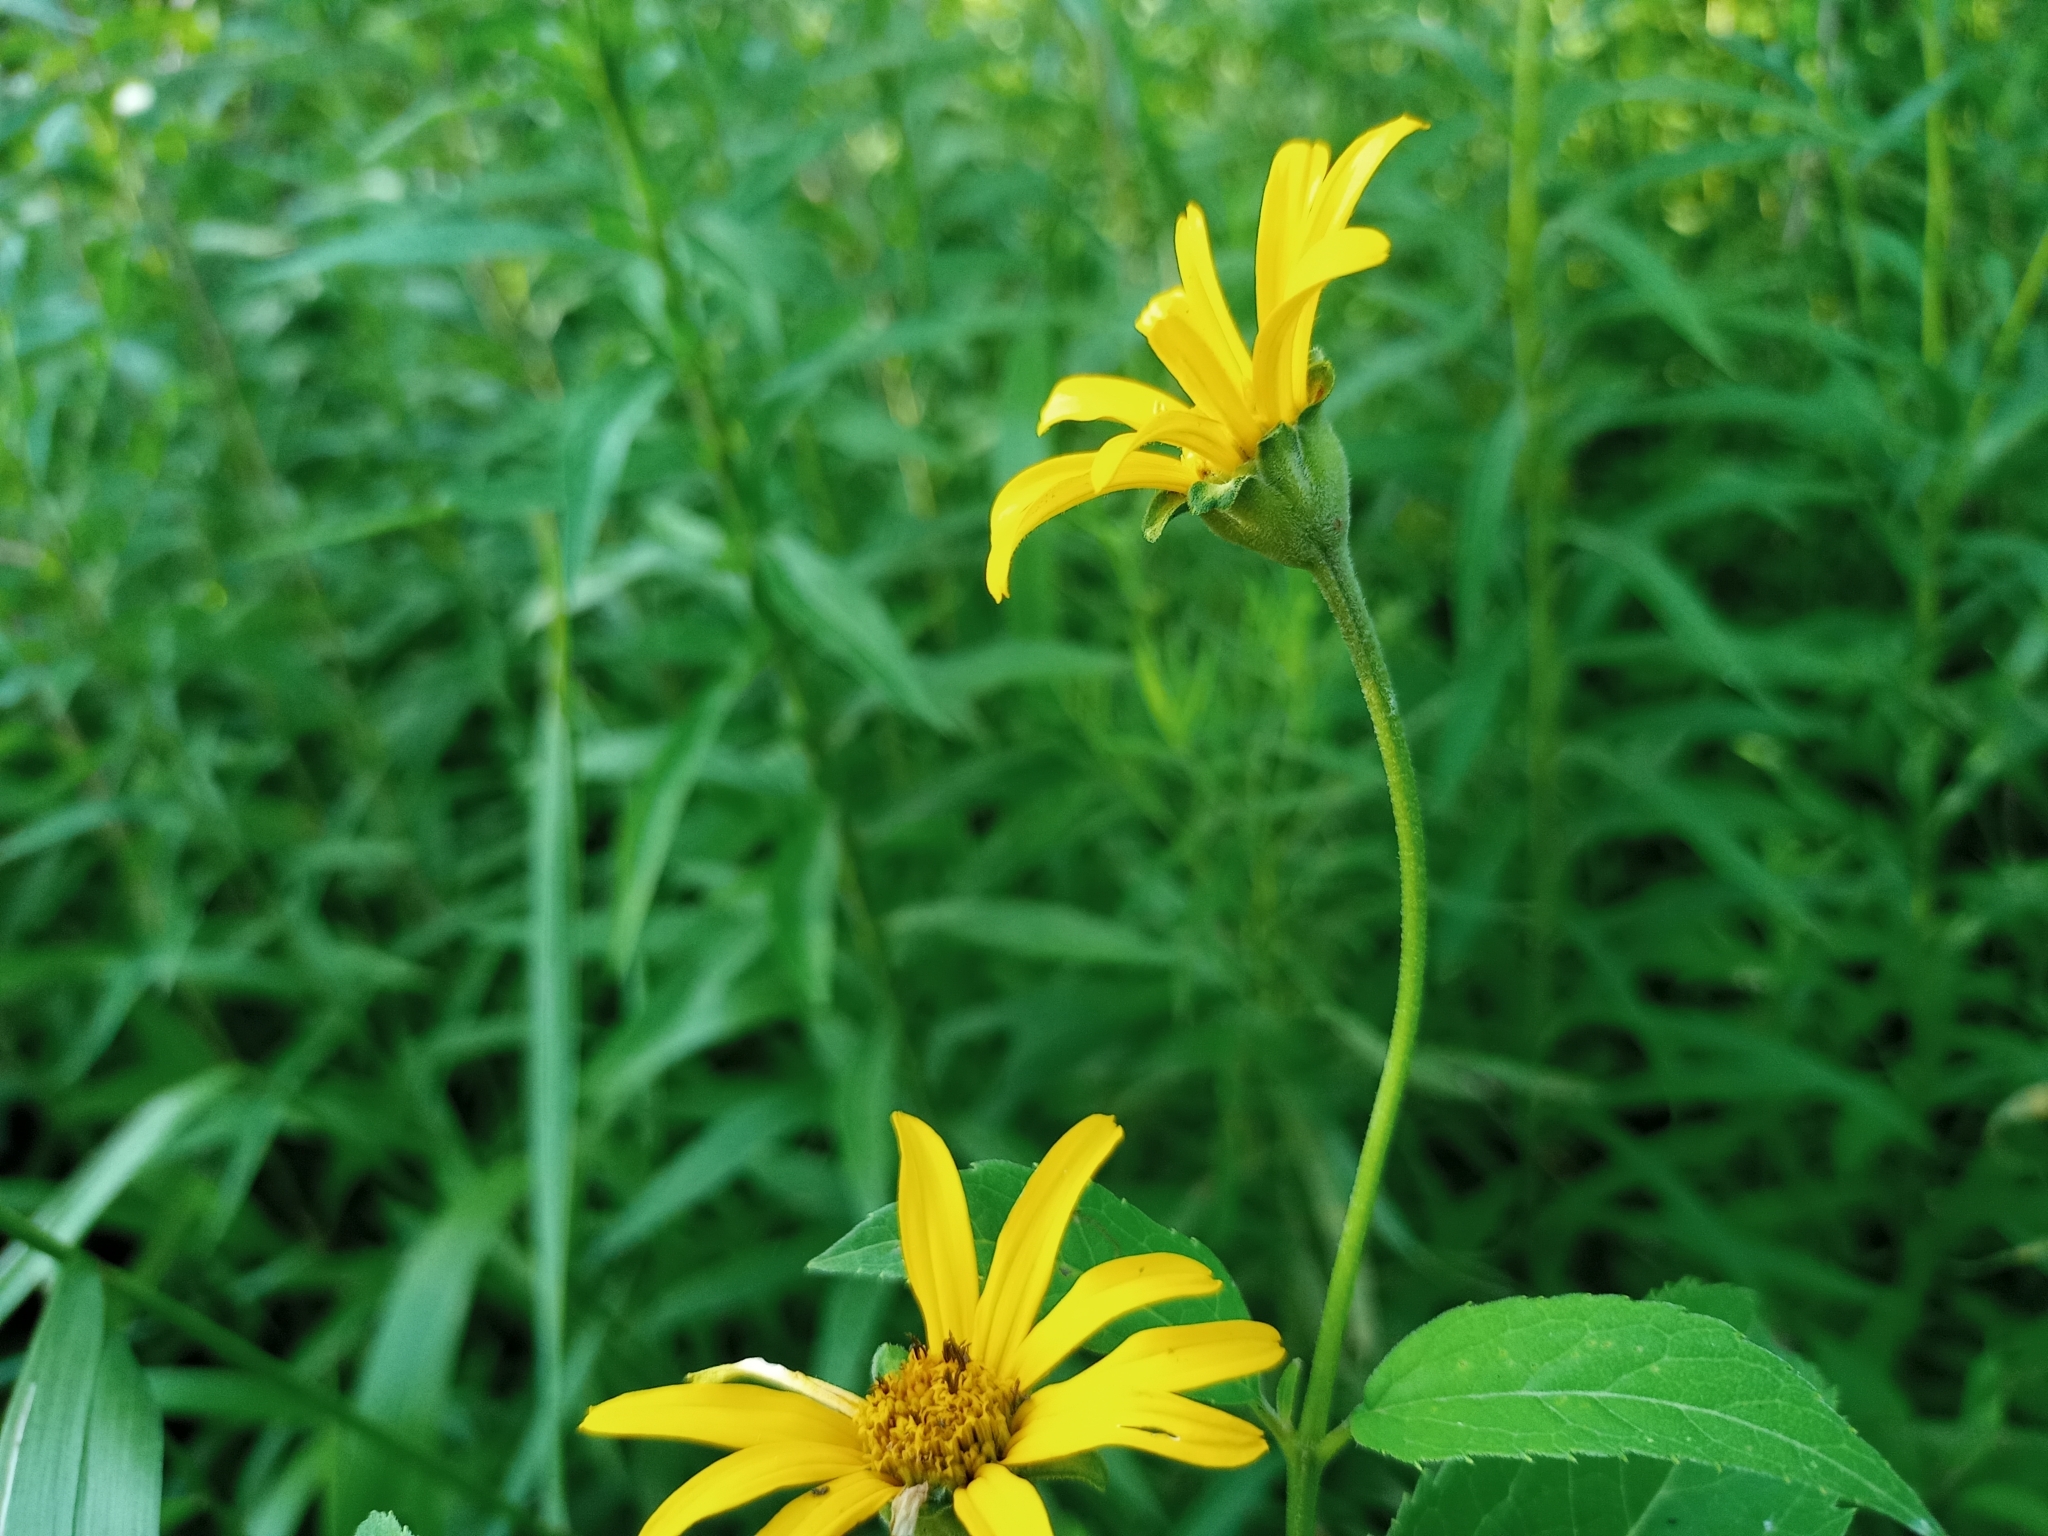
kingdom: Plantae
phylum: Tracheophyta
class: Magnoliopsida
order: Asterales
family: Asteraceae
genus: Heliopsis
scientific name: Heliopsis helianthoides
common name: False sunflower
